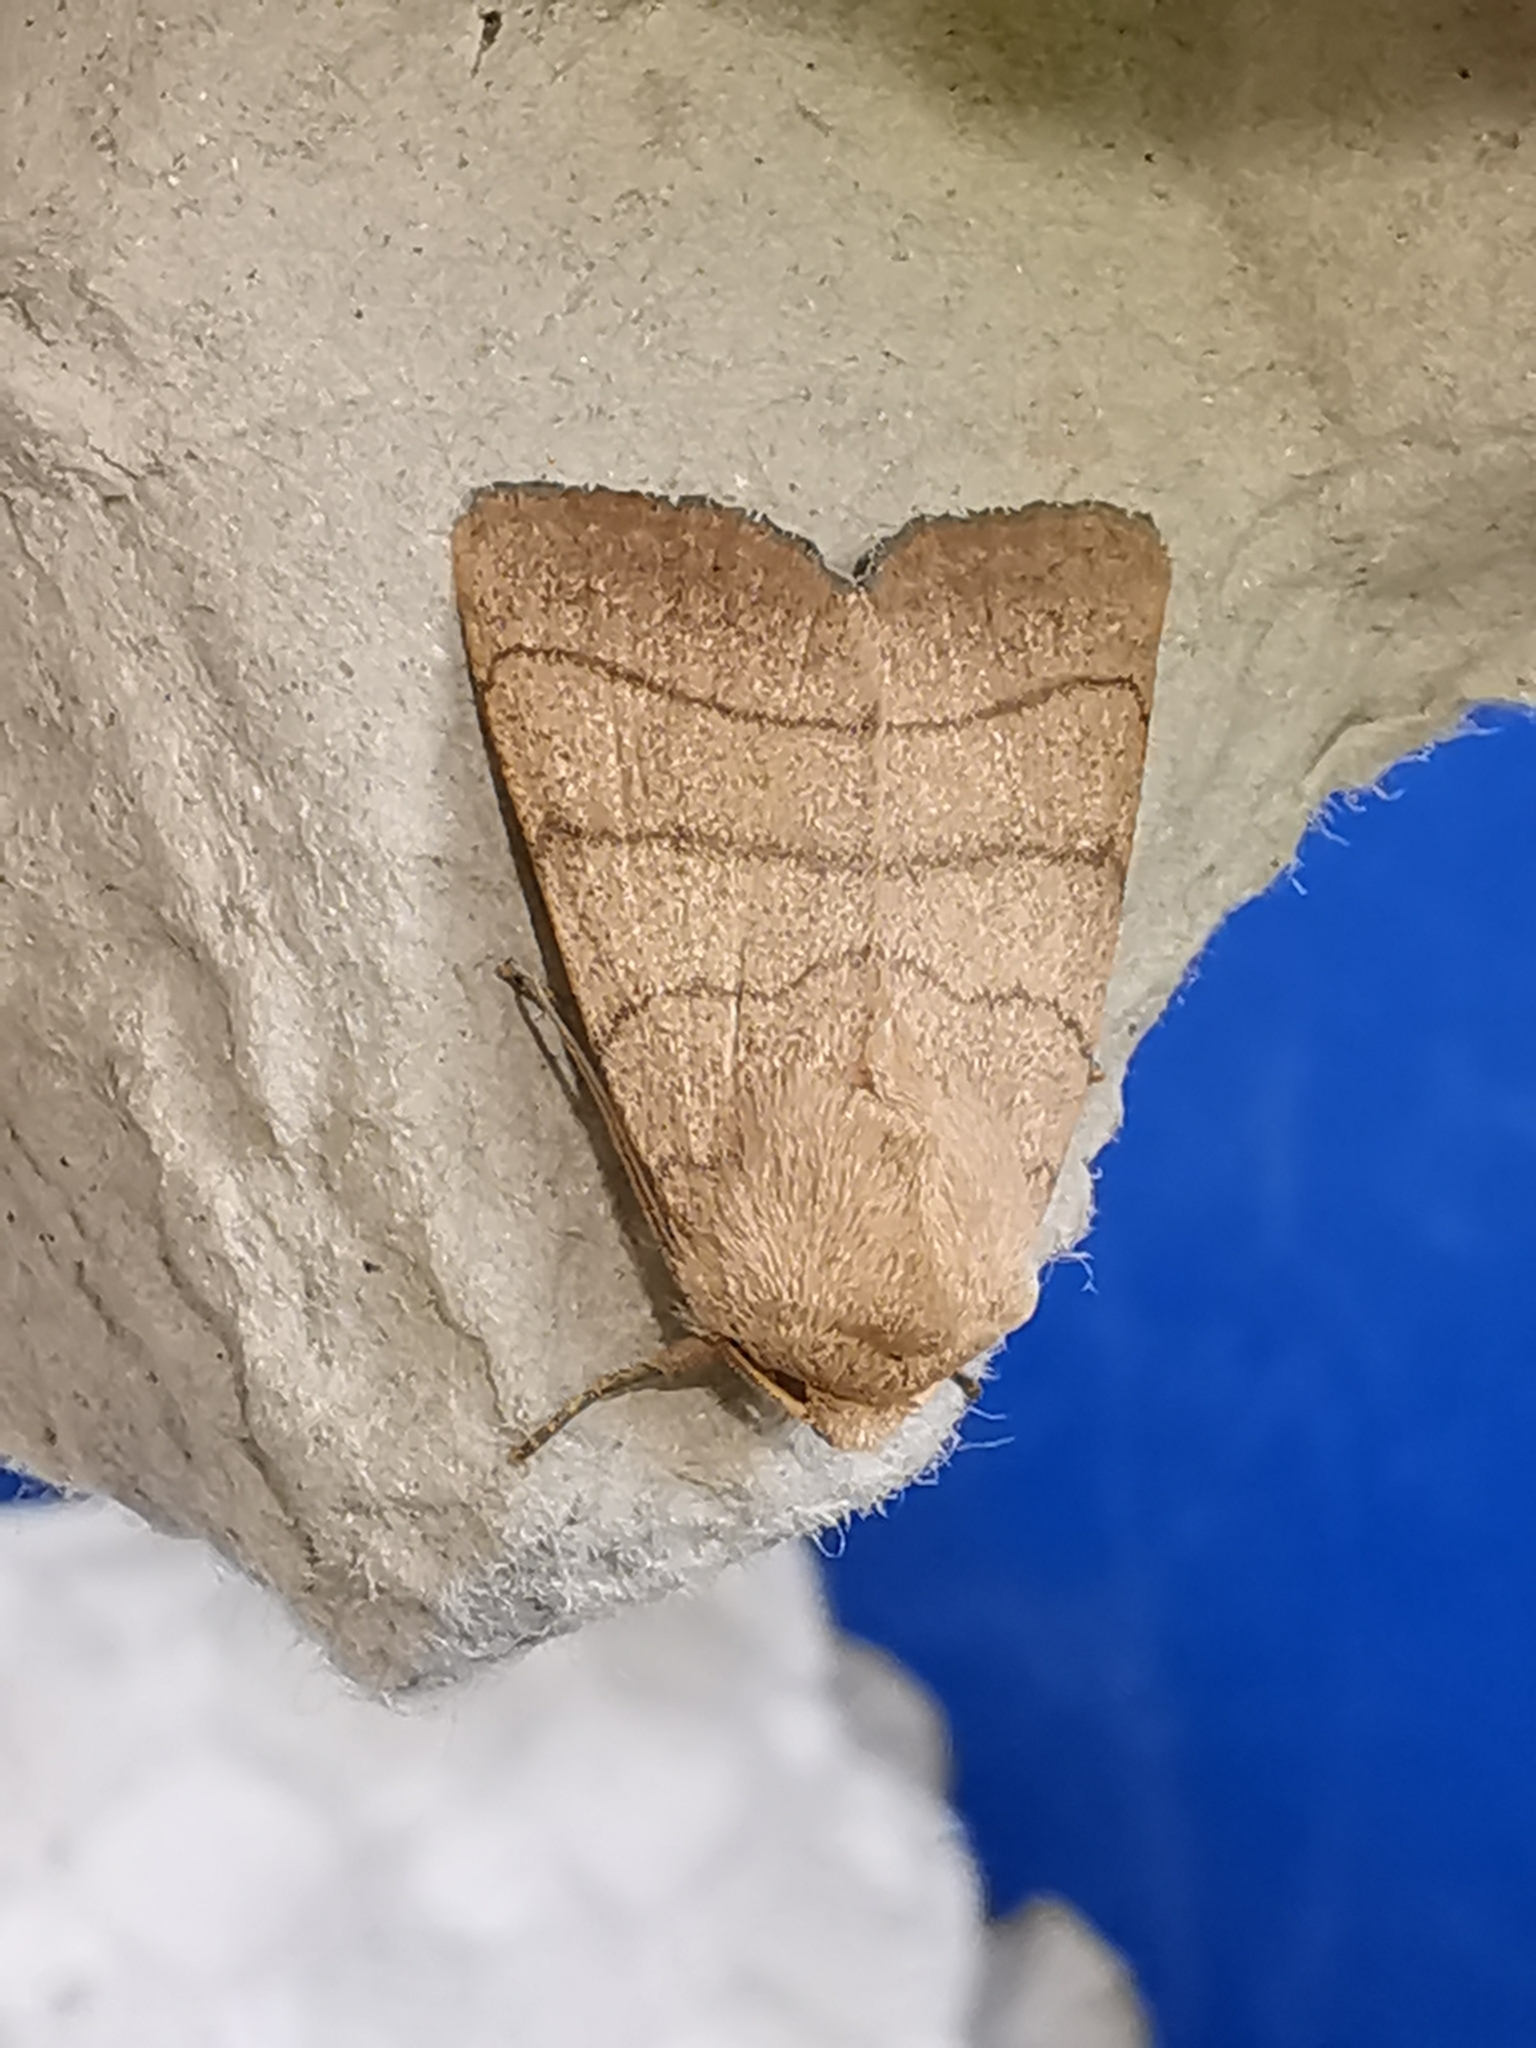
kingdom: Animalia
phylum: Arthropoda
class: Insecta
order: Lepidoptera
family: Noctuidae
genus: Charanyca
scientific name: Charanyca trigrammica
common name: Treble lines
